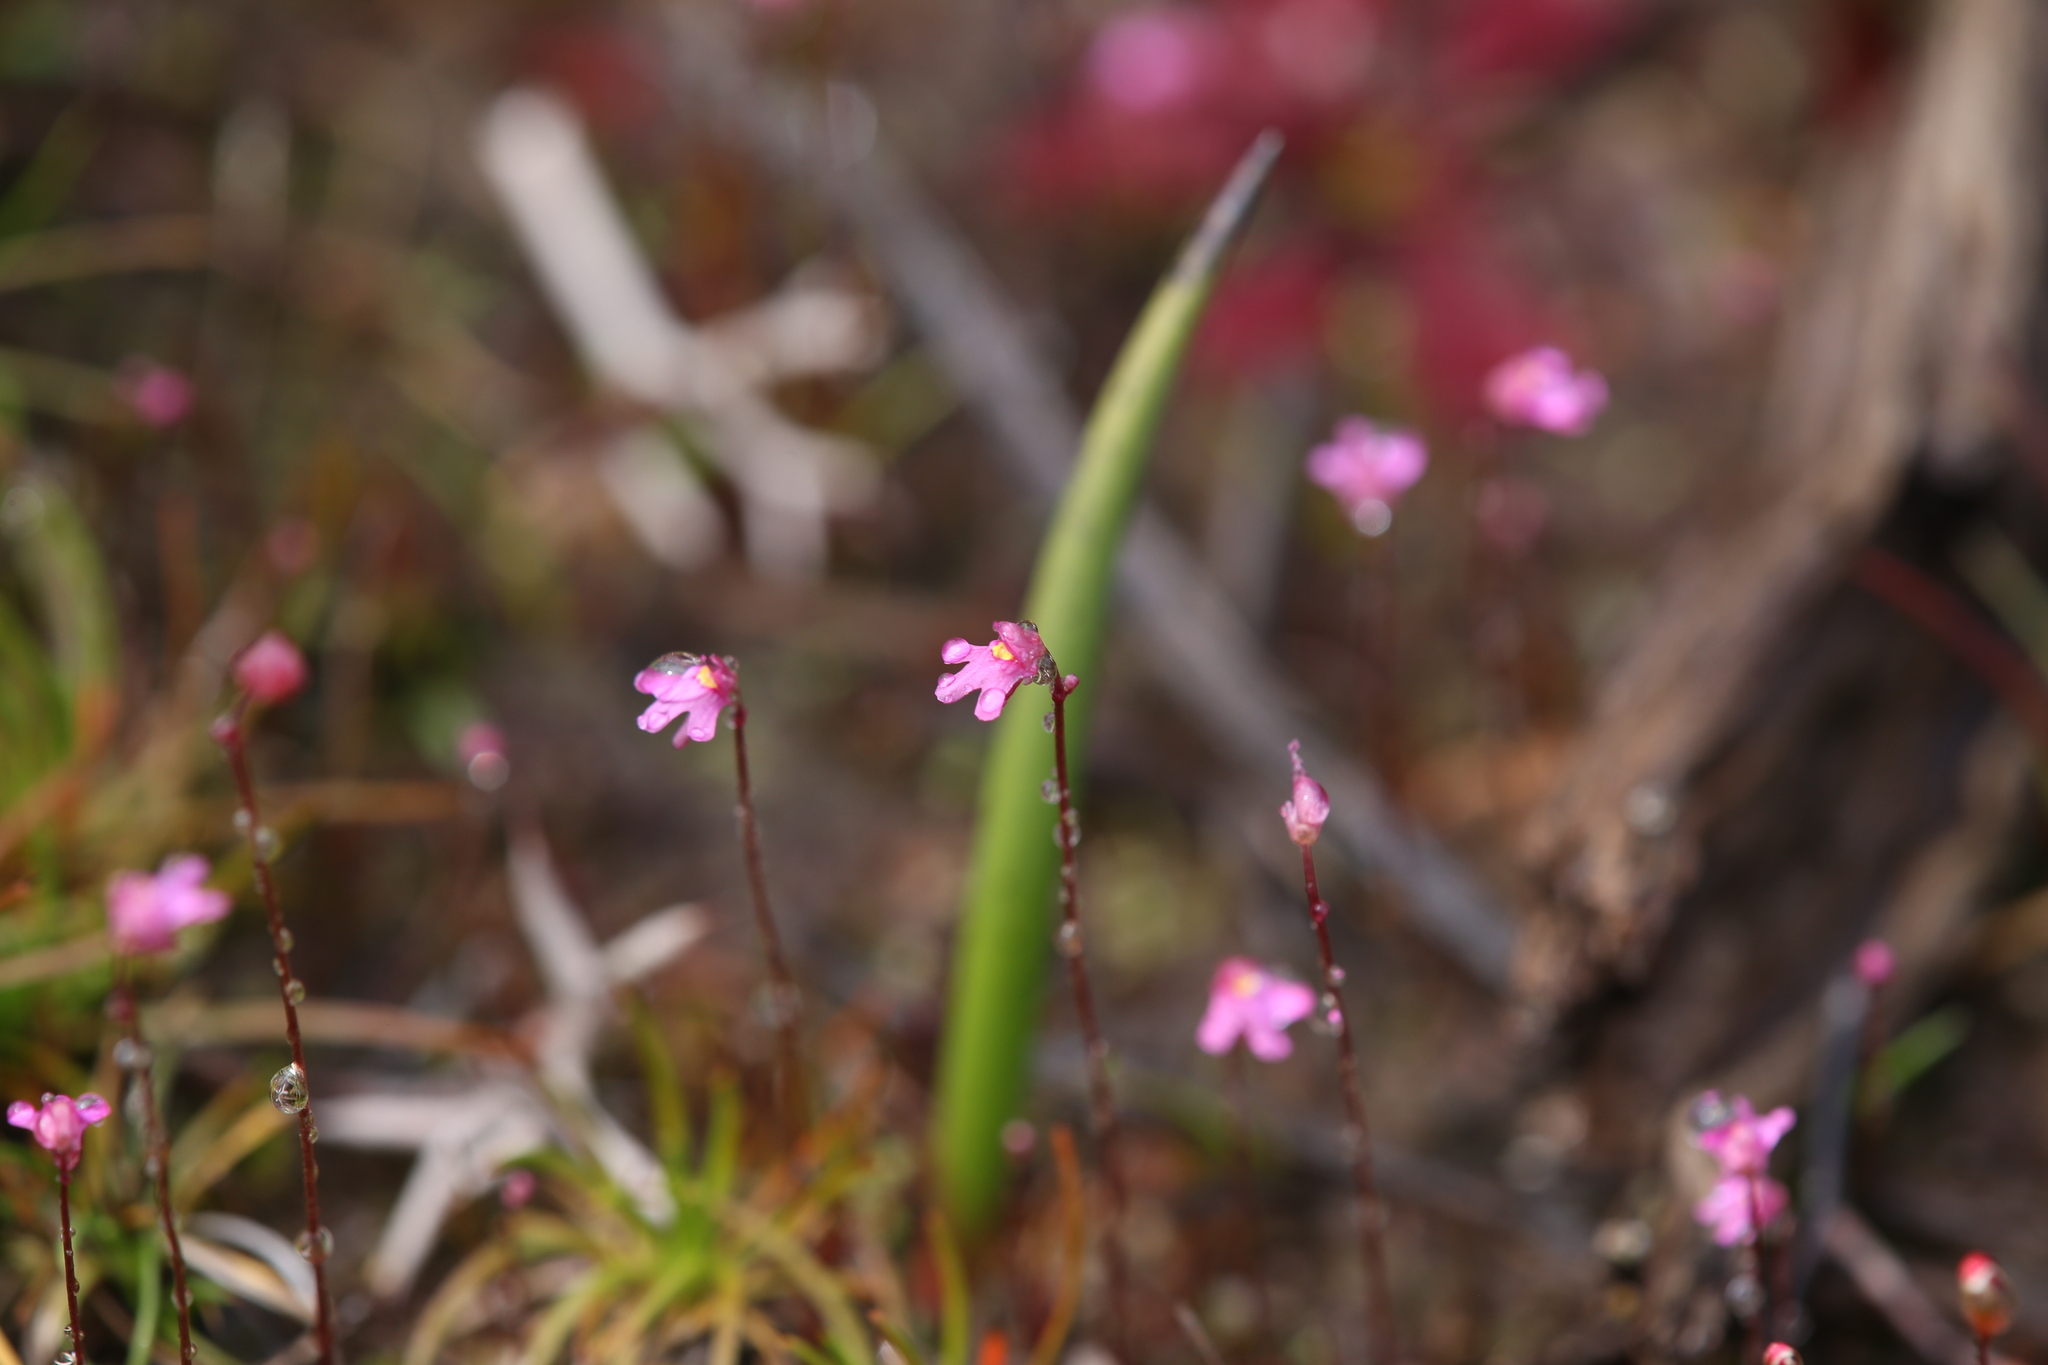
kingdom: Plantae
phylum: Tracheophyta
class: Magnoliopsida
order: Lamiales
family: Lentibulariaceae
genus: Utricularia
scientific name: Utricularia tenella
